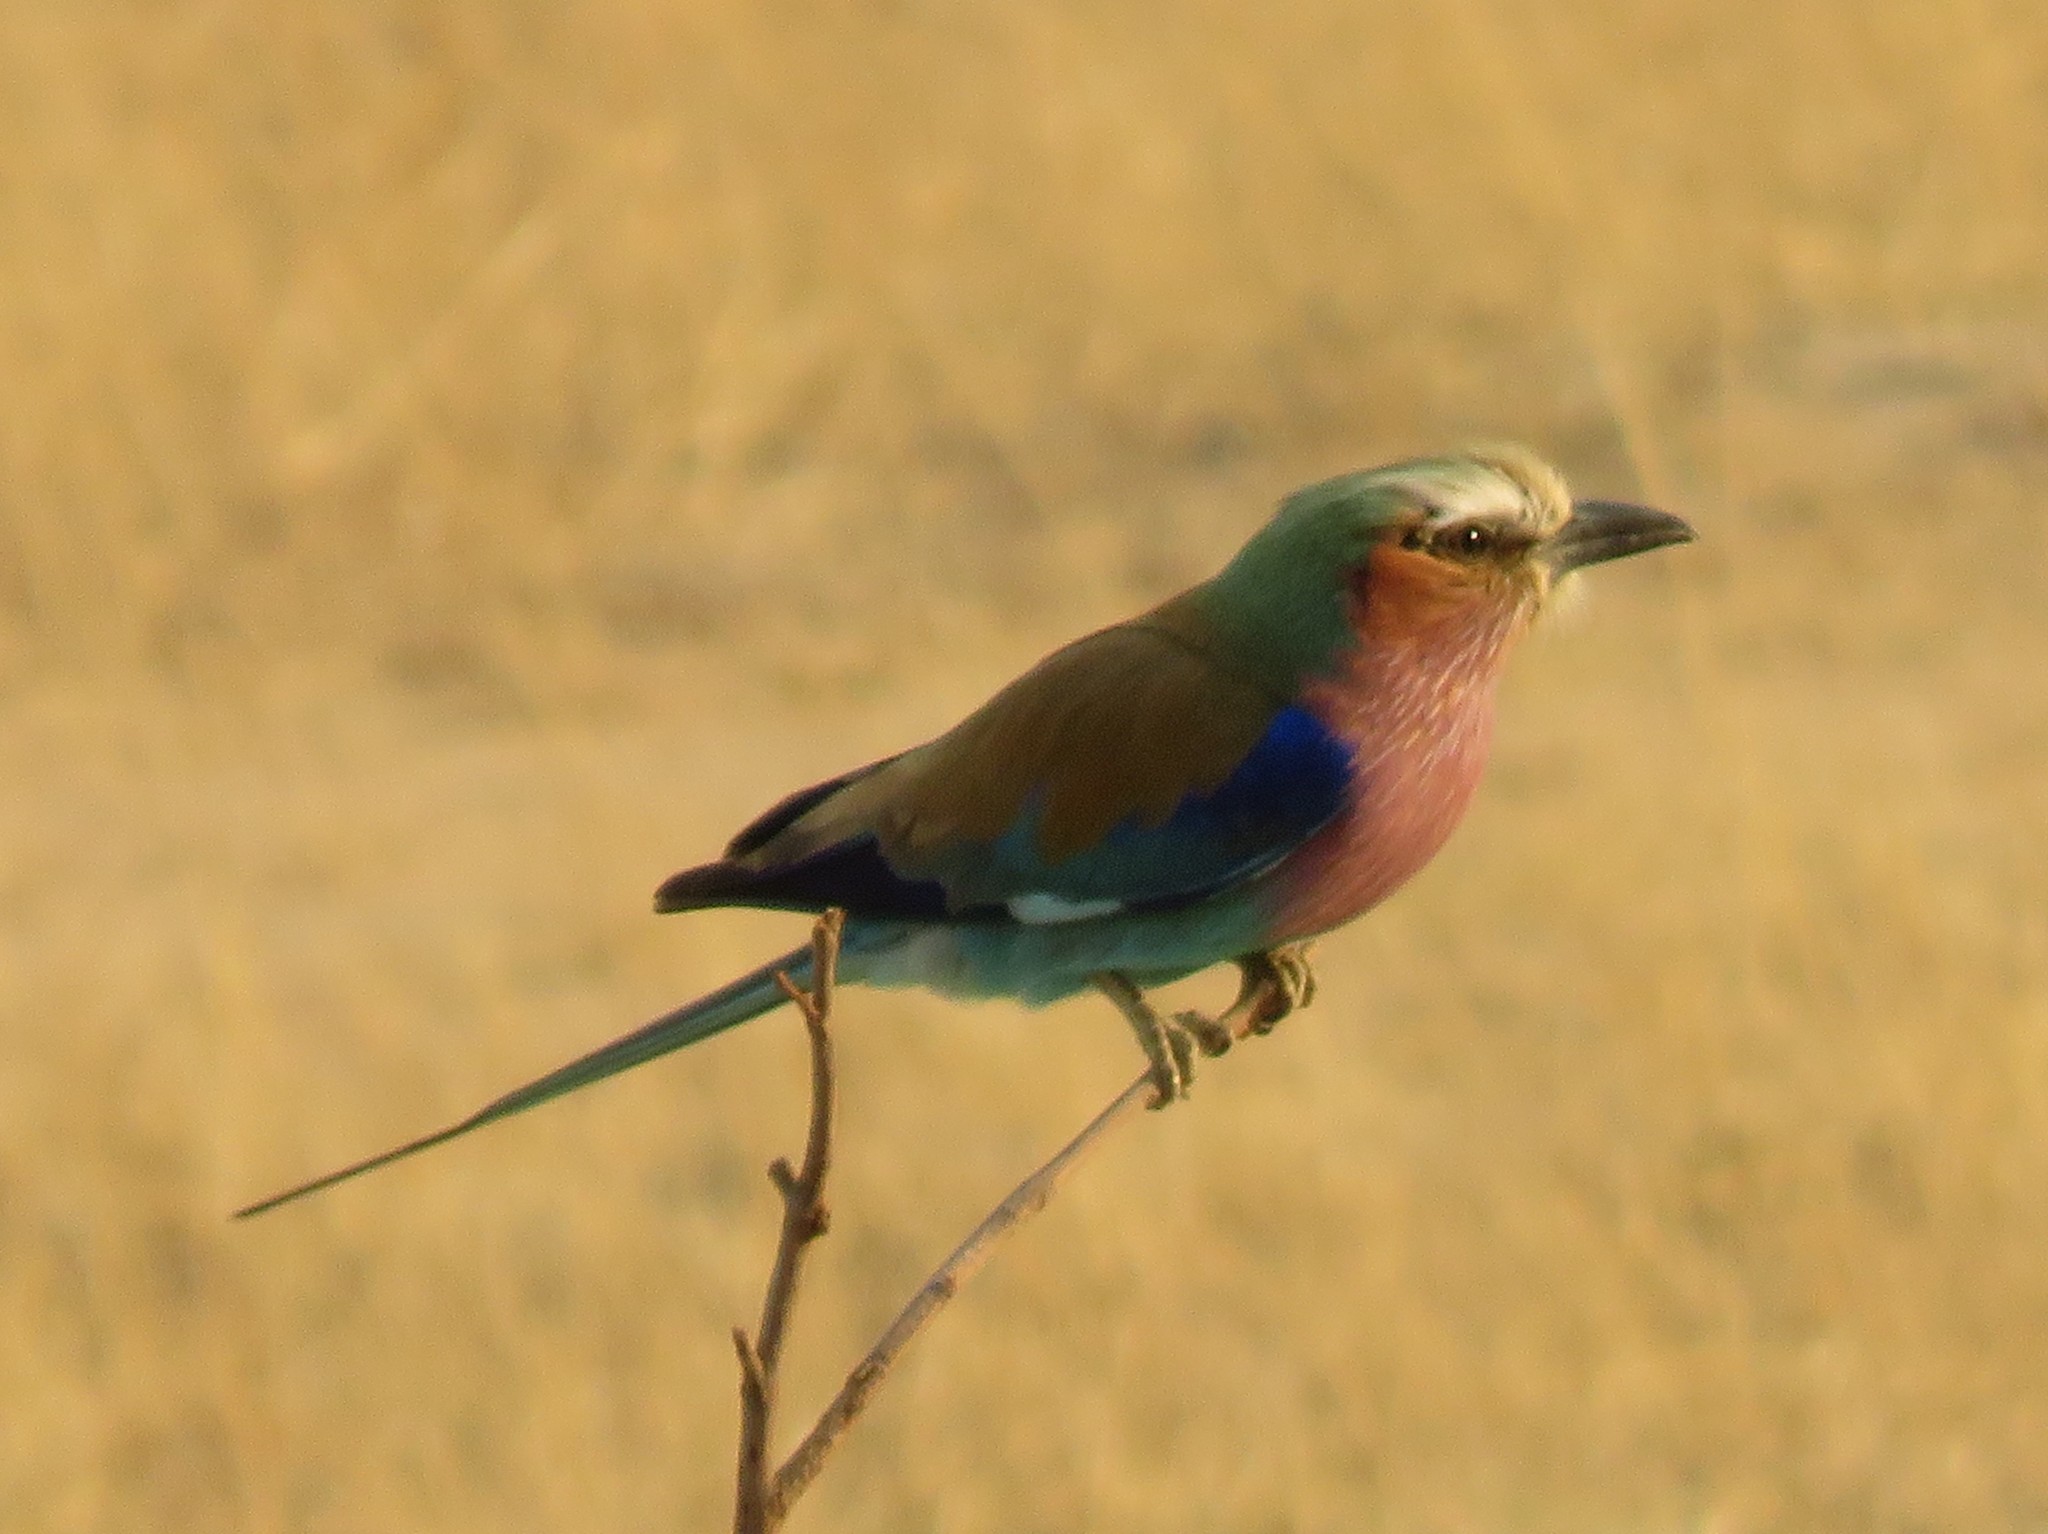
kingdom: Animalia
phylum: Chordata
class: Aves
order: Coraciiformes
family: Coraciidae
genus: Coracias
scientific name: Coracias caudatus
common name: Lilac-breasted roller
